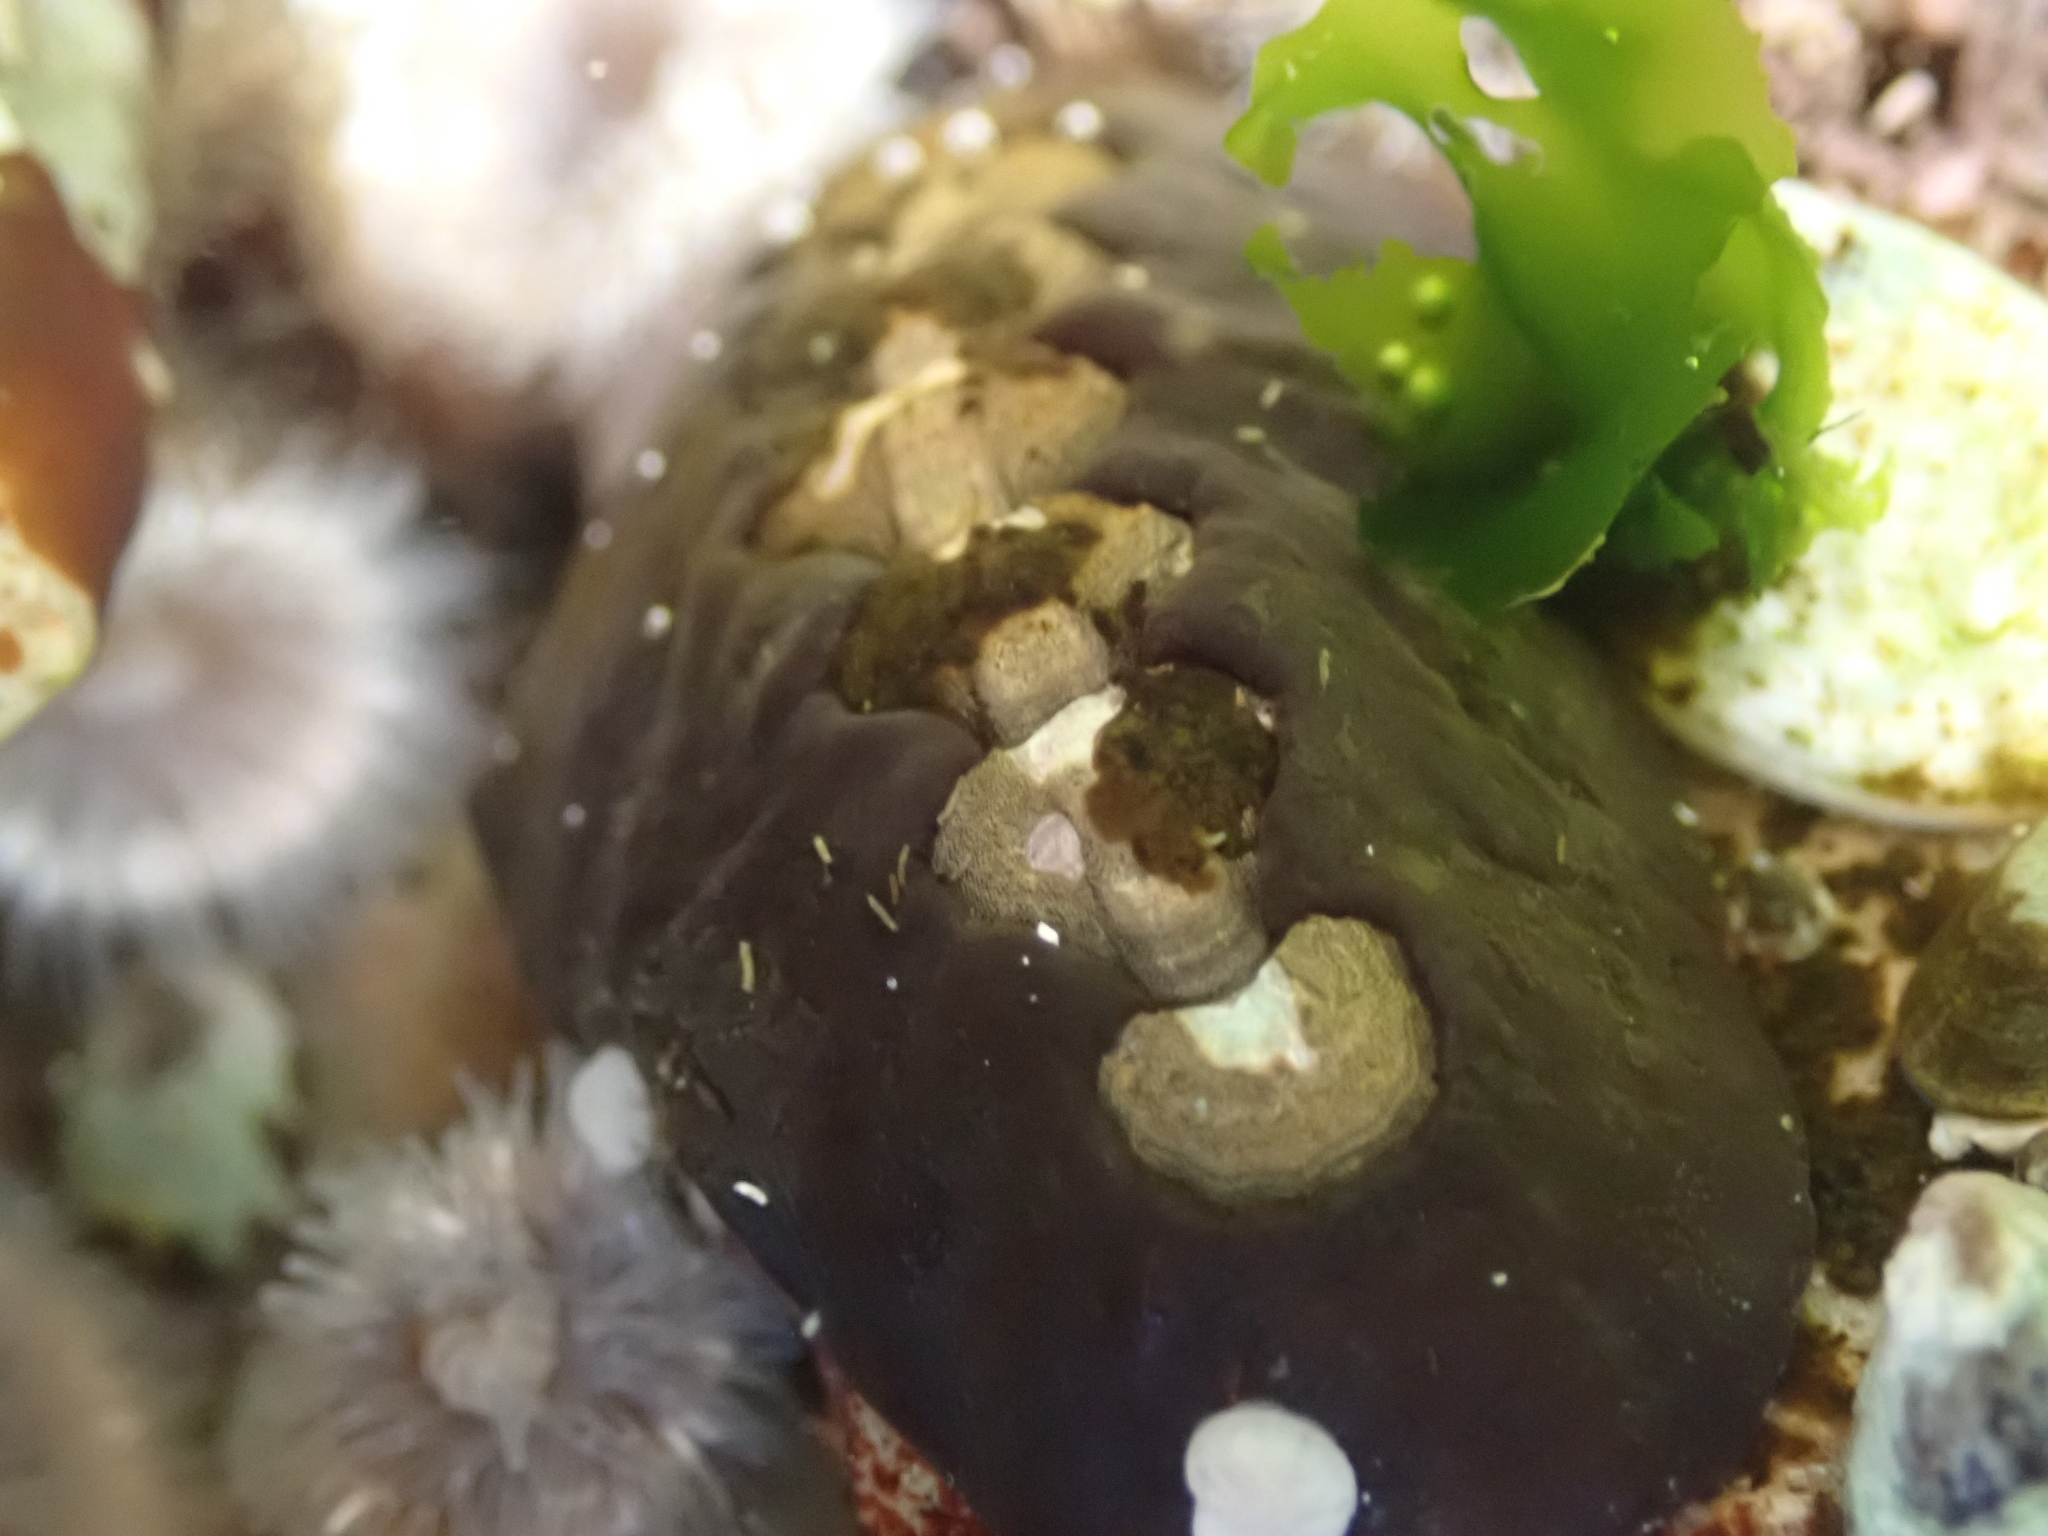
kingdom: Animalia
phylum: Mollusca
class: Polyplacophora
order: Chitonida
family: Mopaliidae
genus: Katharina
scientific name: Katharina tunicata
